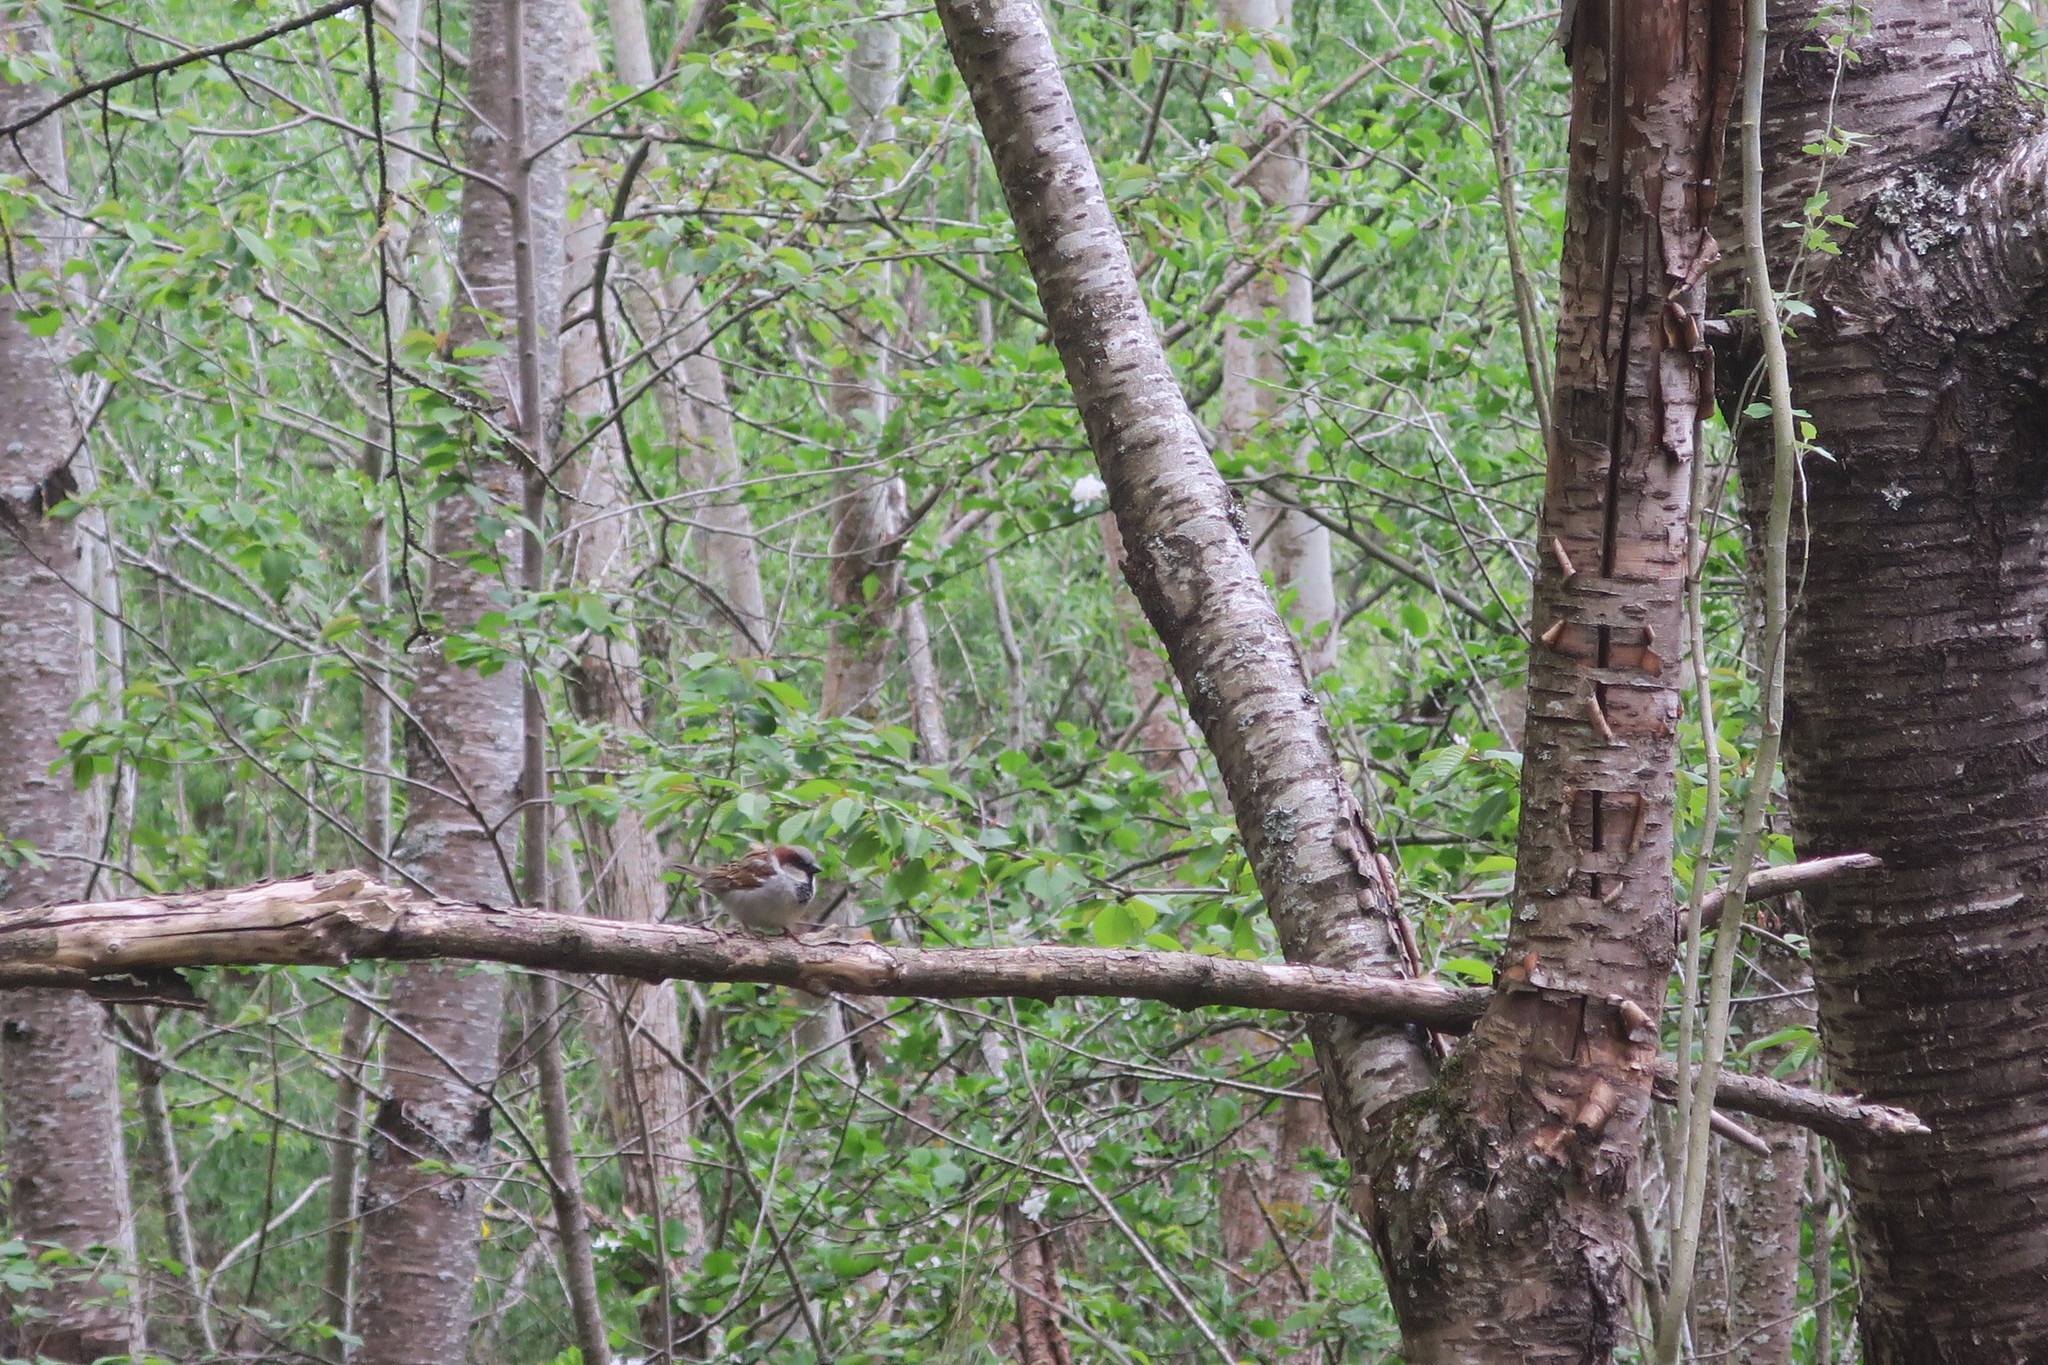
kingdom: Animalia
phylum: Chordata
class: Aves
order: Passeriformes
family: Passeridae
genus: Passer
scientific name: Passer domesticus
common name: House sparrow
